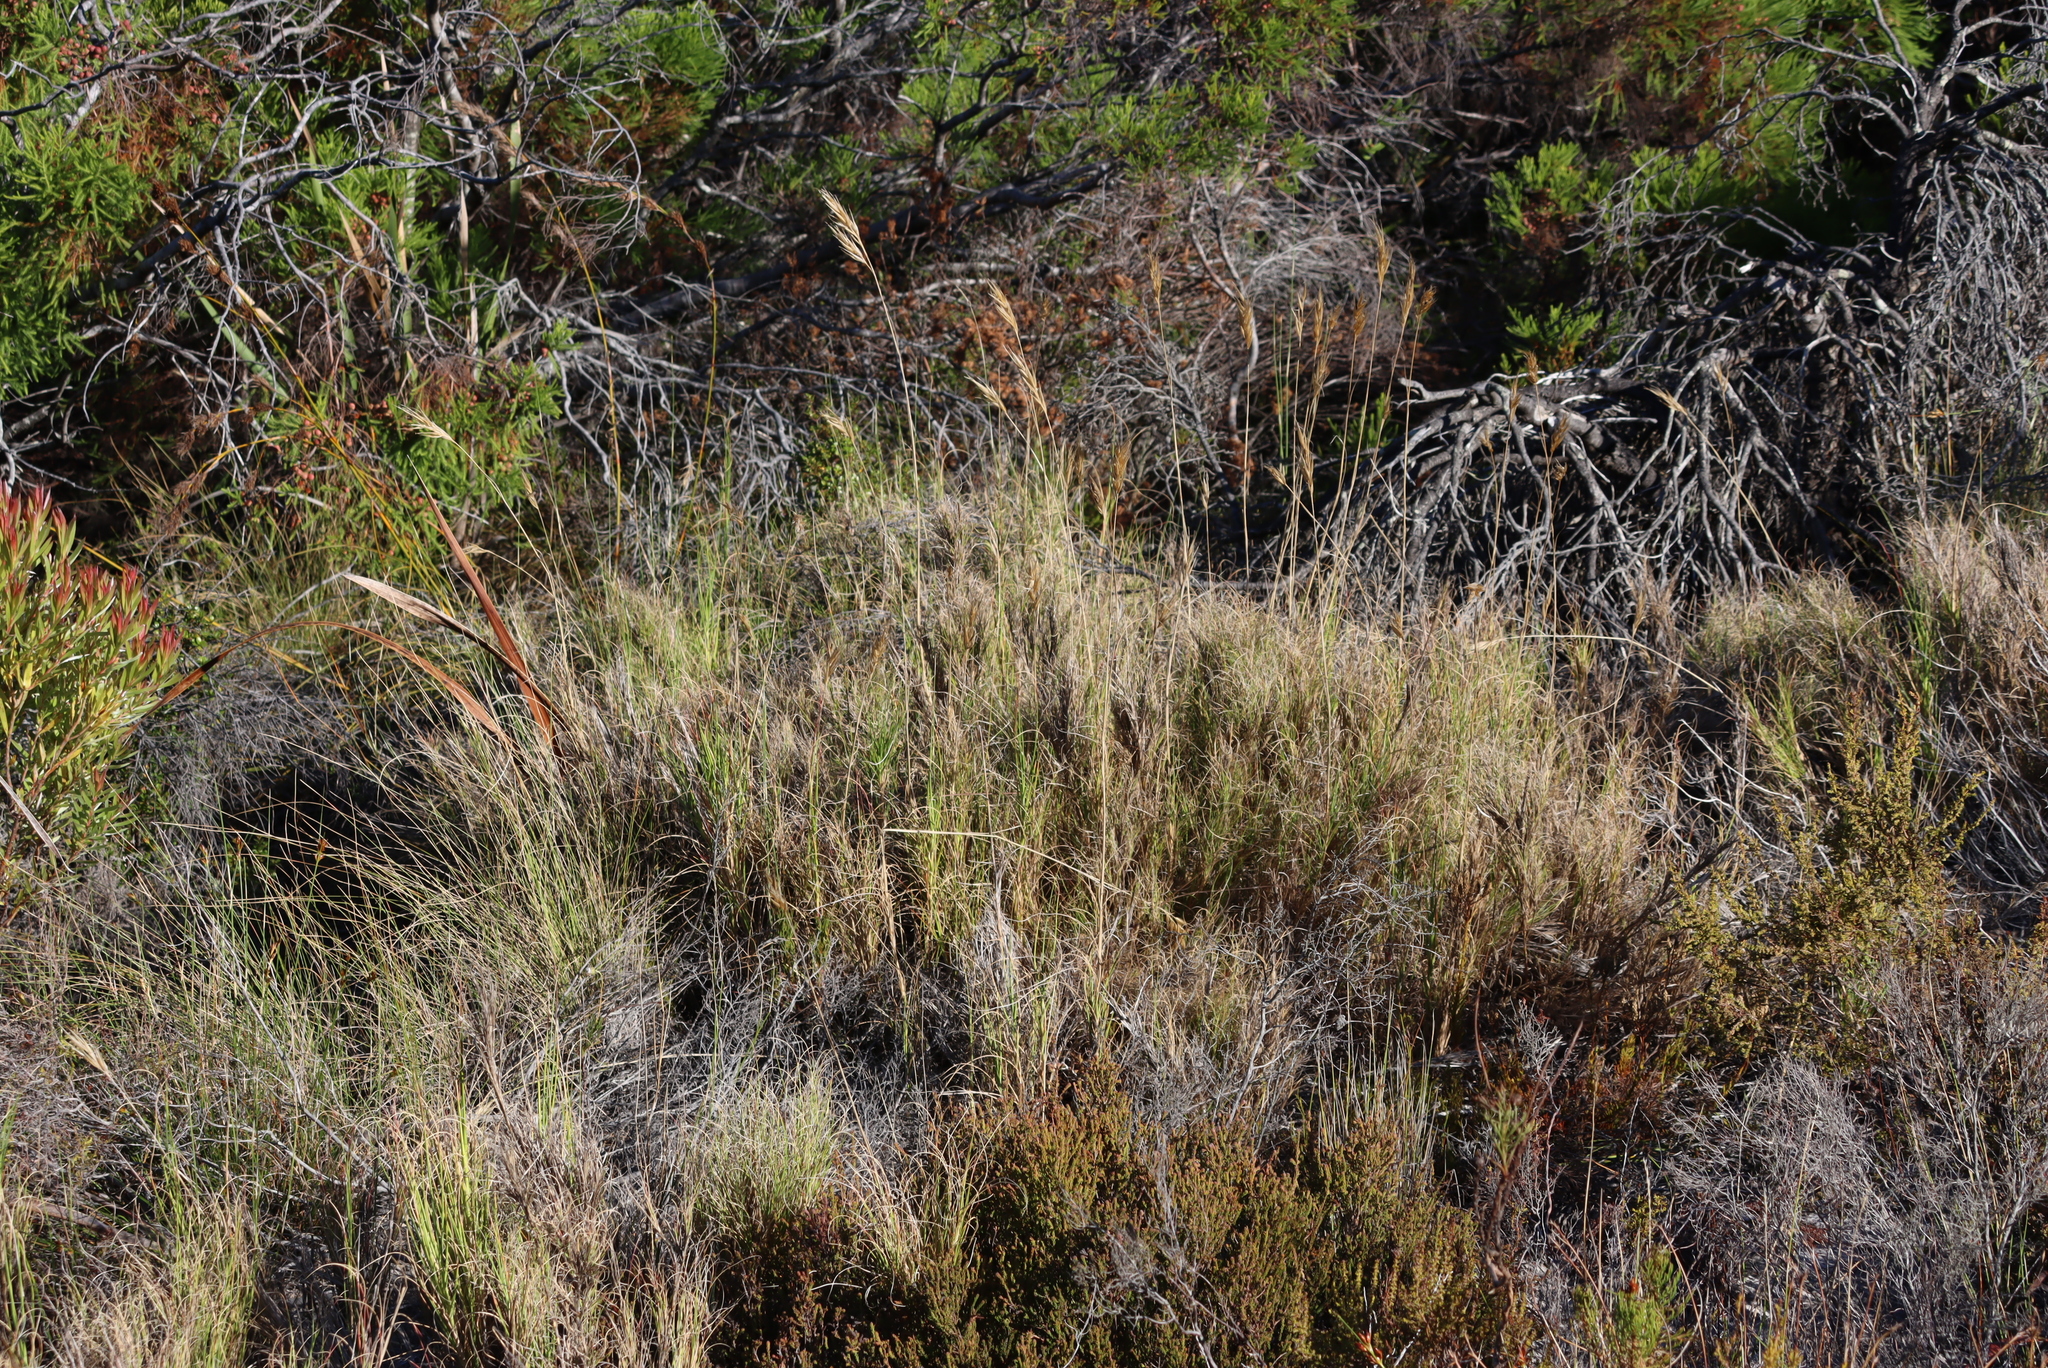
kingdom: Plantae
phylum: Tracheophyta
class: Liliopsida
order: Poales
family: Poaceae
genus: Pseudopentameris
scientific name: Pseudopentameris macrantha
